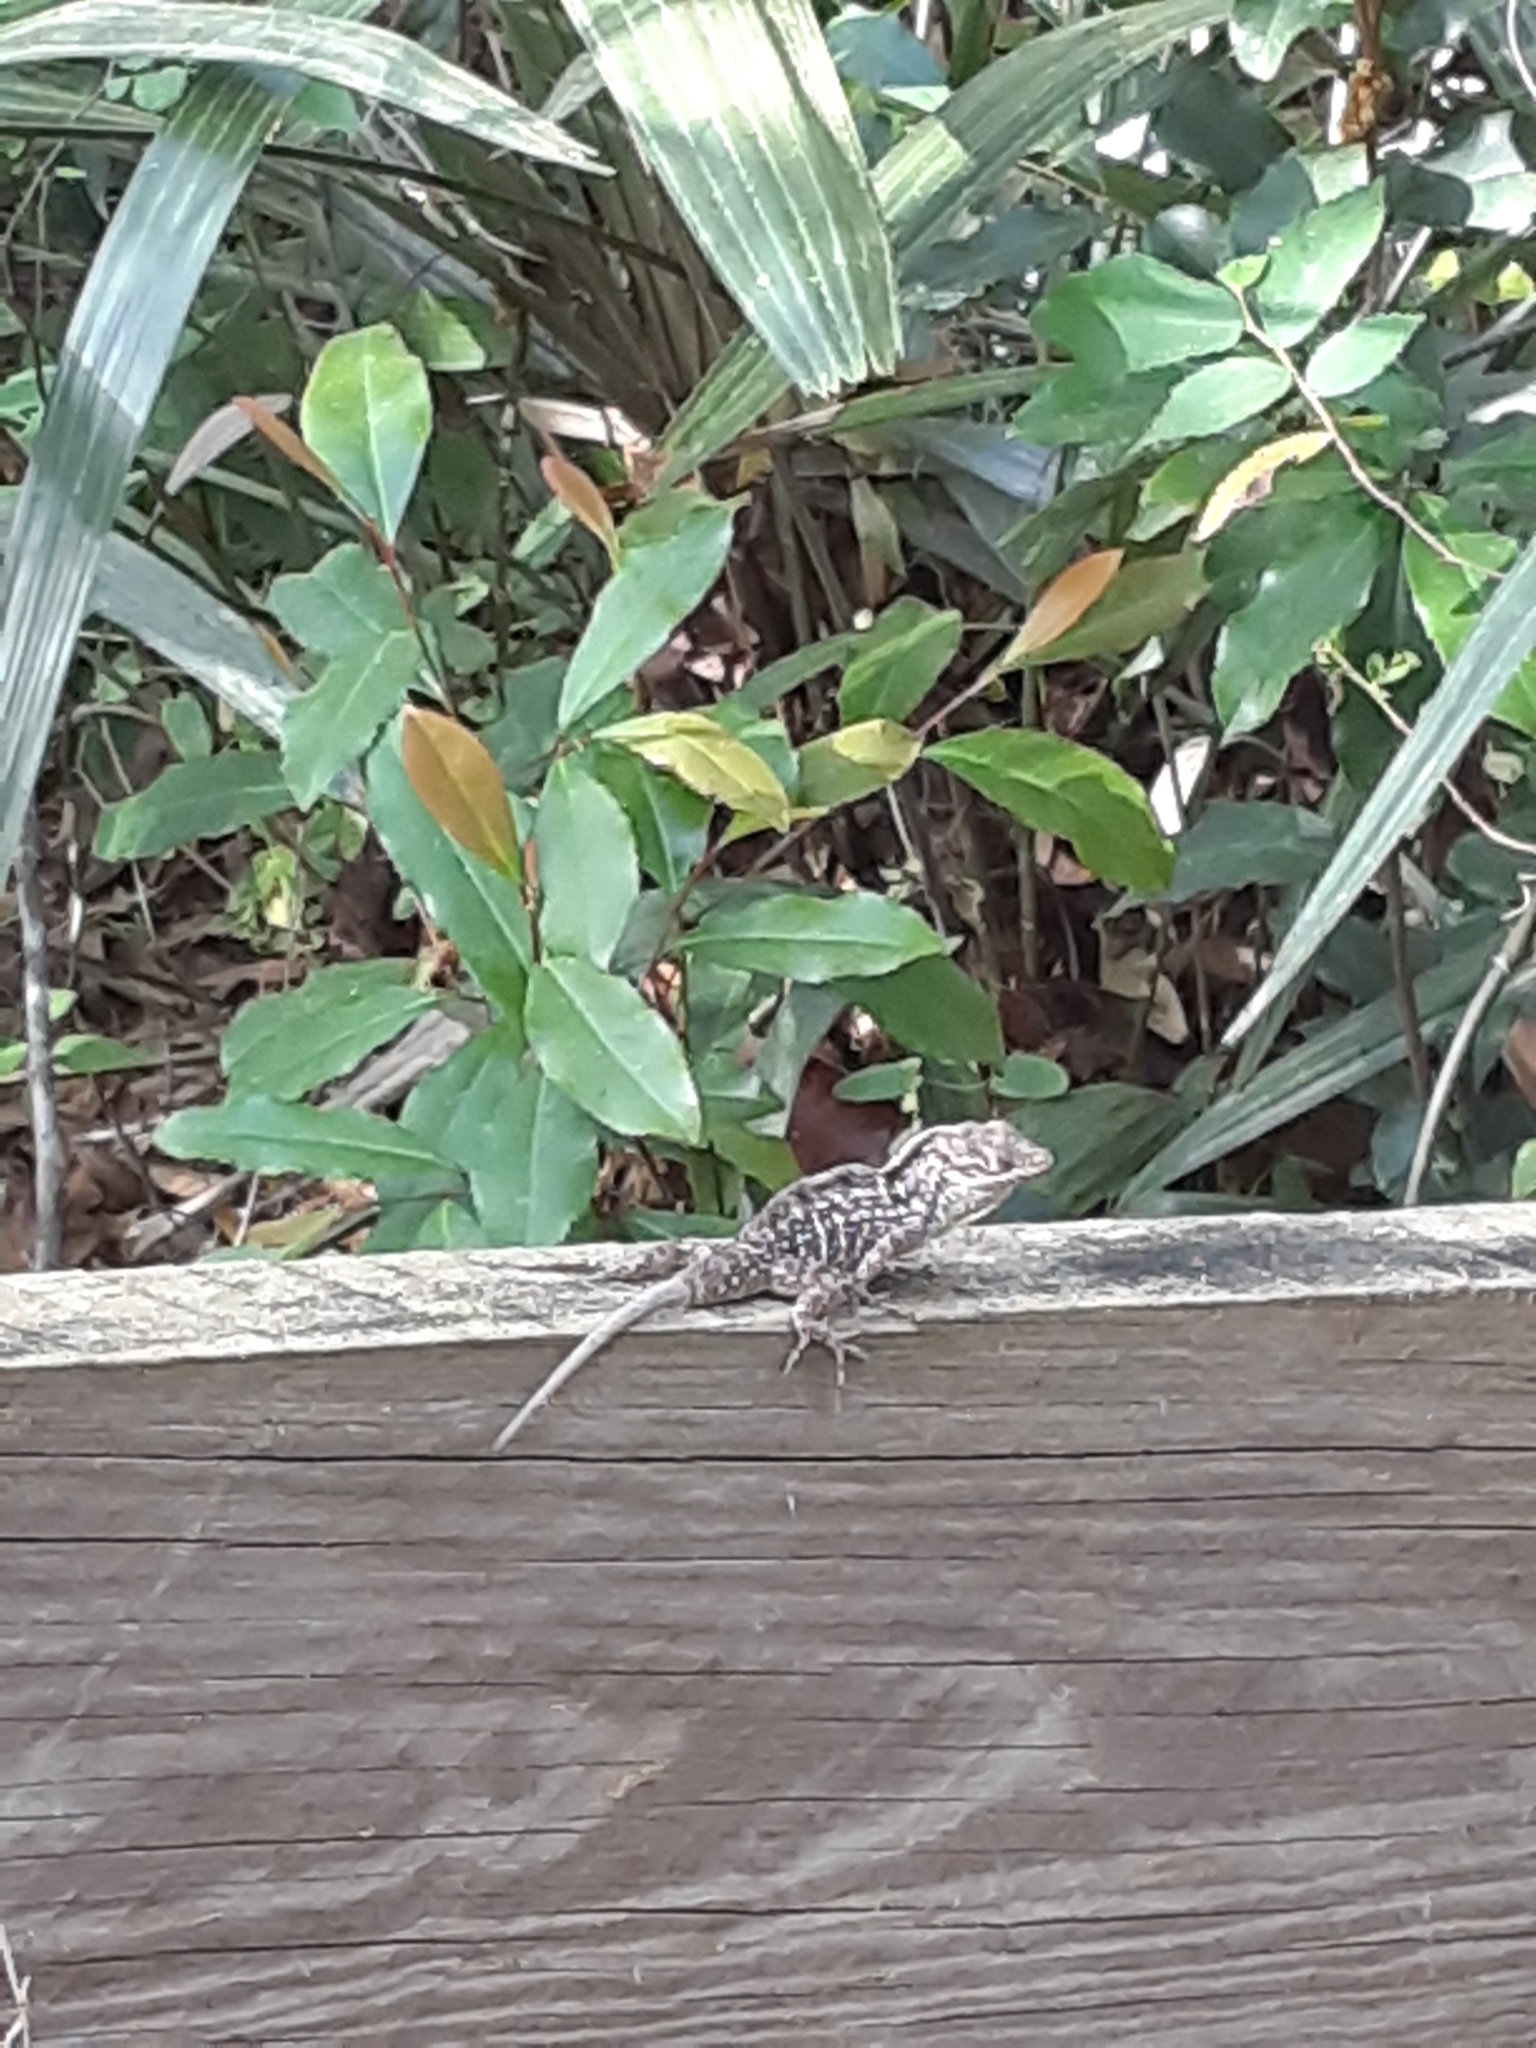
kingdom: Animalia
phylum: Chordata
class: Squamata
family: Dactyloidae
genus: Anolis
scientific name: Anolis sagrei
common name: Brown anole
